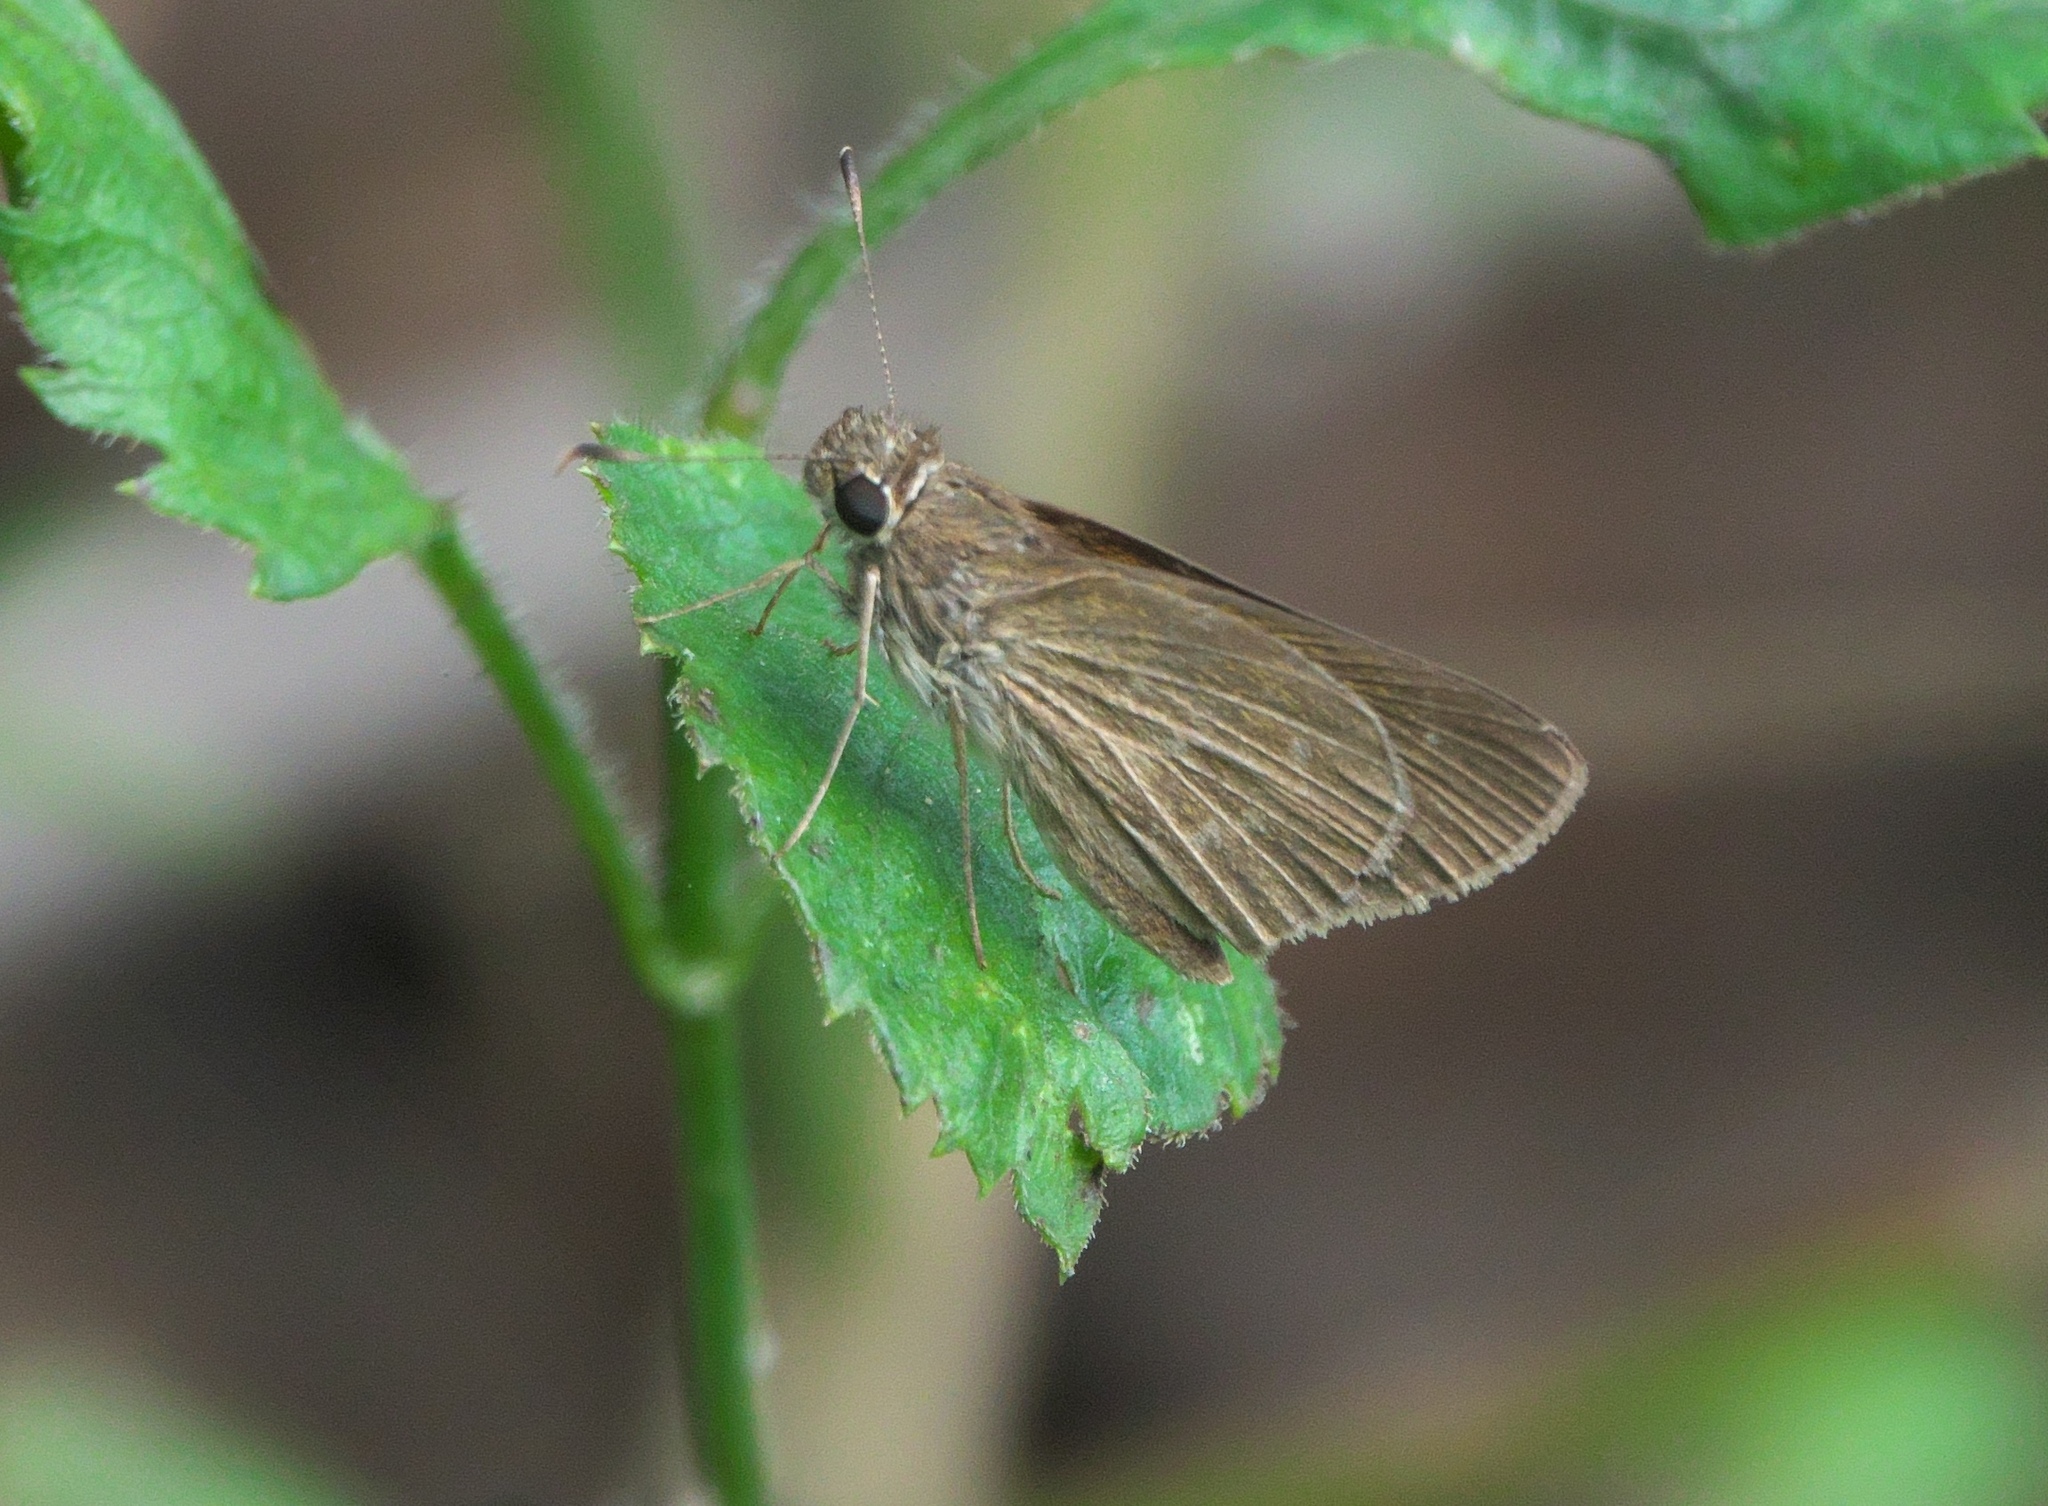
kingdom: Animalia
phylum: Arthropoda
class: Insecta
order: Lepidoptera
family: Hesperiidae
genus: Cymaenes
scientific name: Cymaenes tripunctus
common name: Dingy dotted skipper
